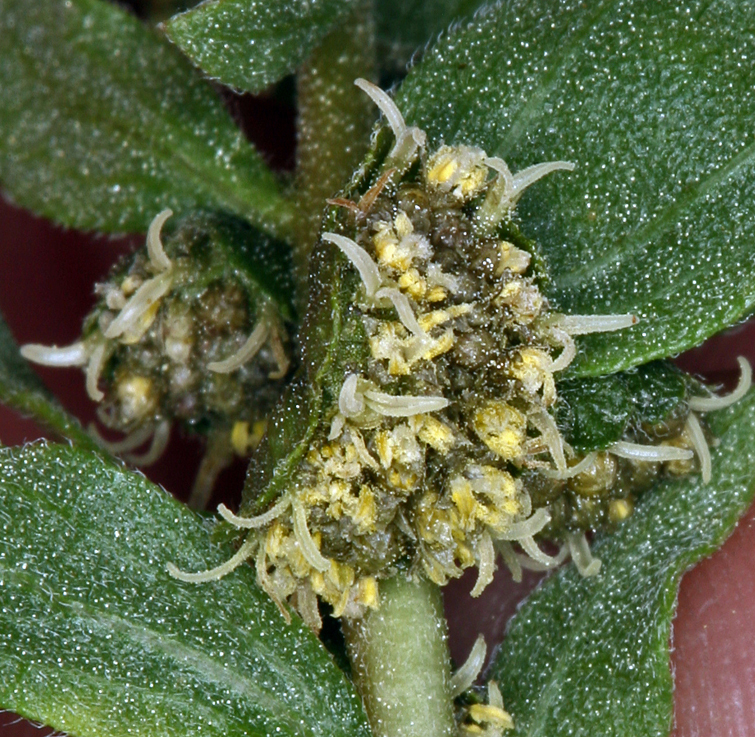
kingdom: Plantae
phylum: Tracheophyta
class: Magnoliopsida
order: Asterales
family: Asteraceae
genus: Iva
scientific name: Iva axillaris
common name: Poverty sumpweed
